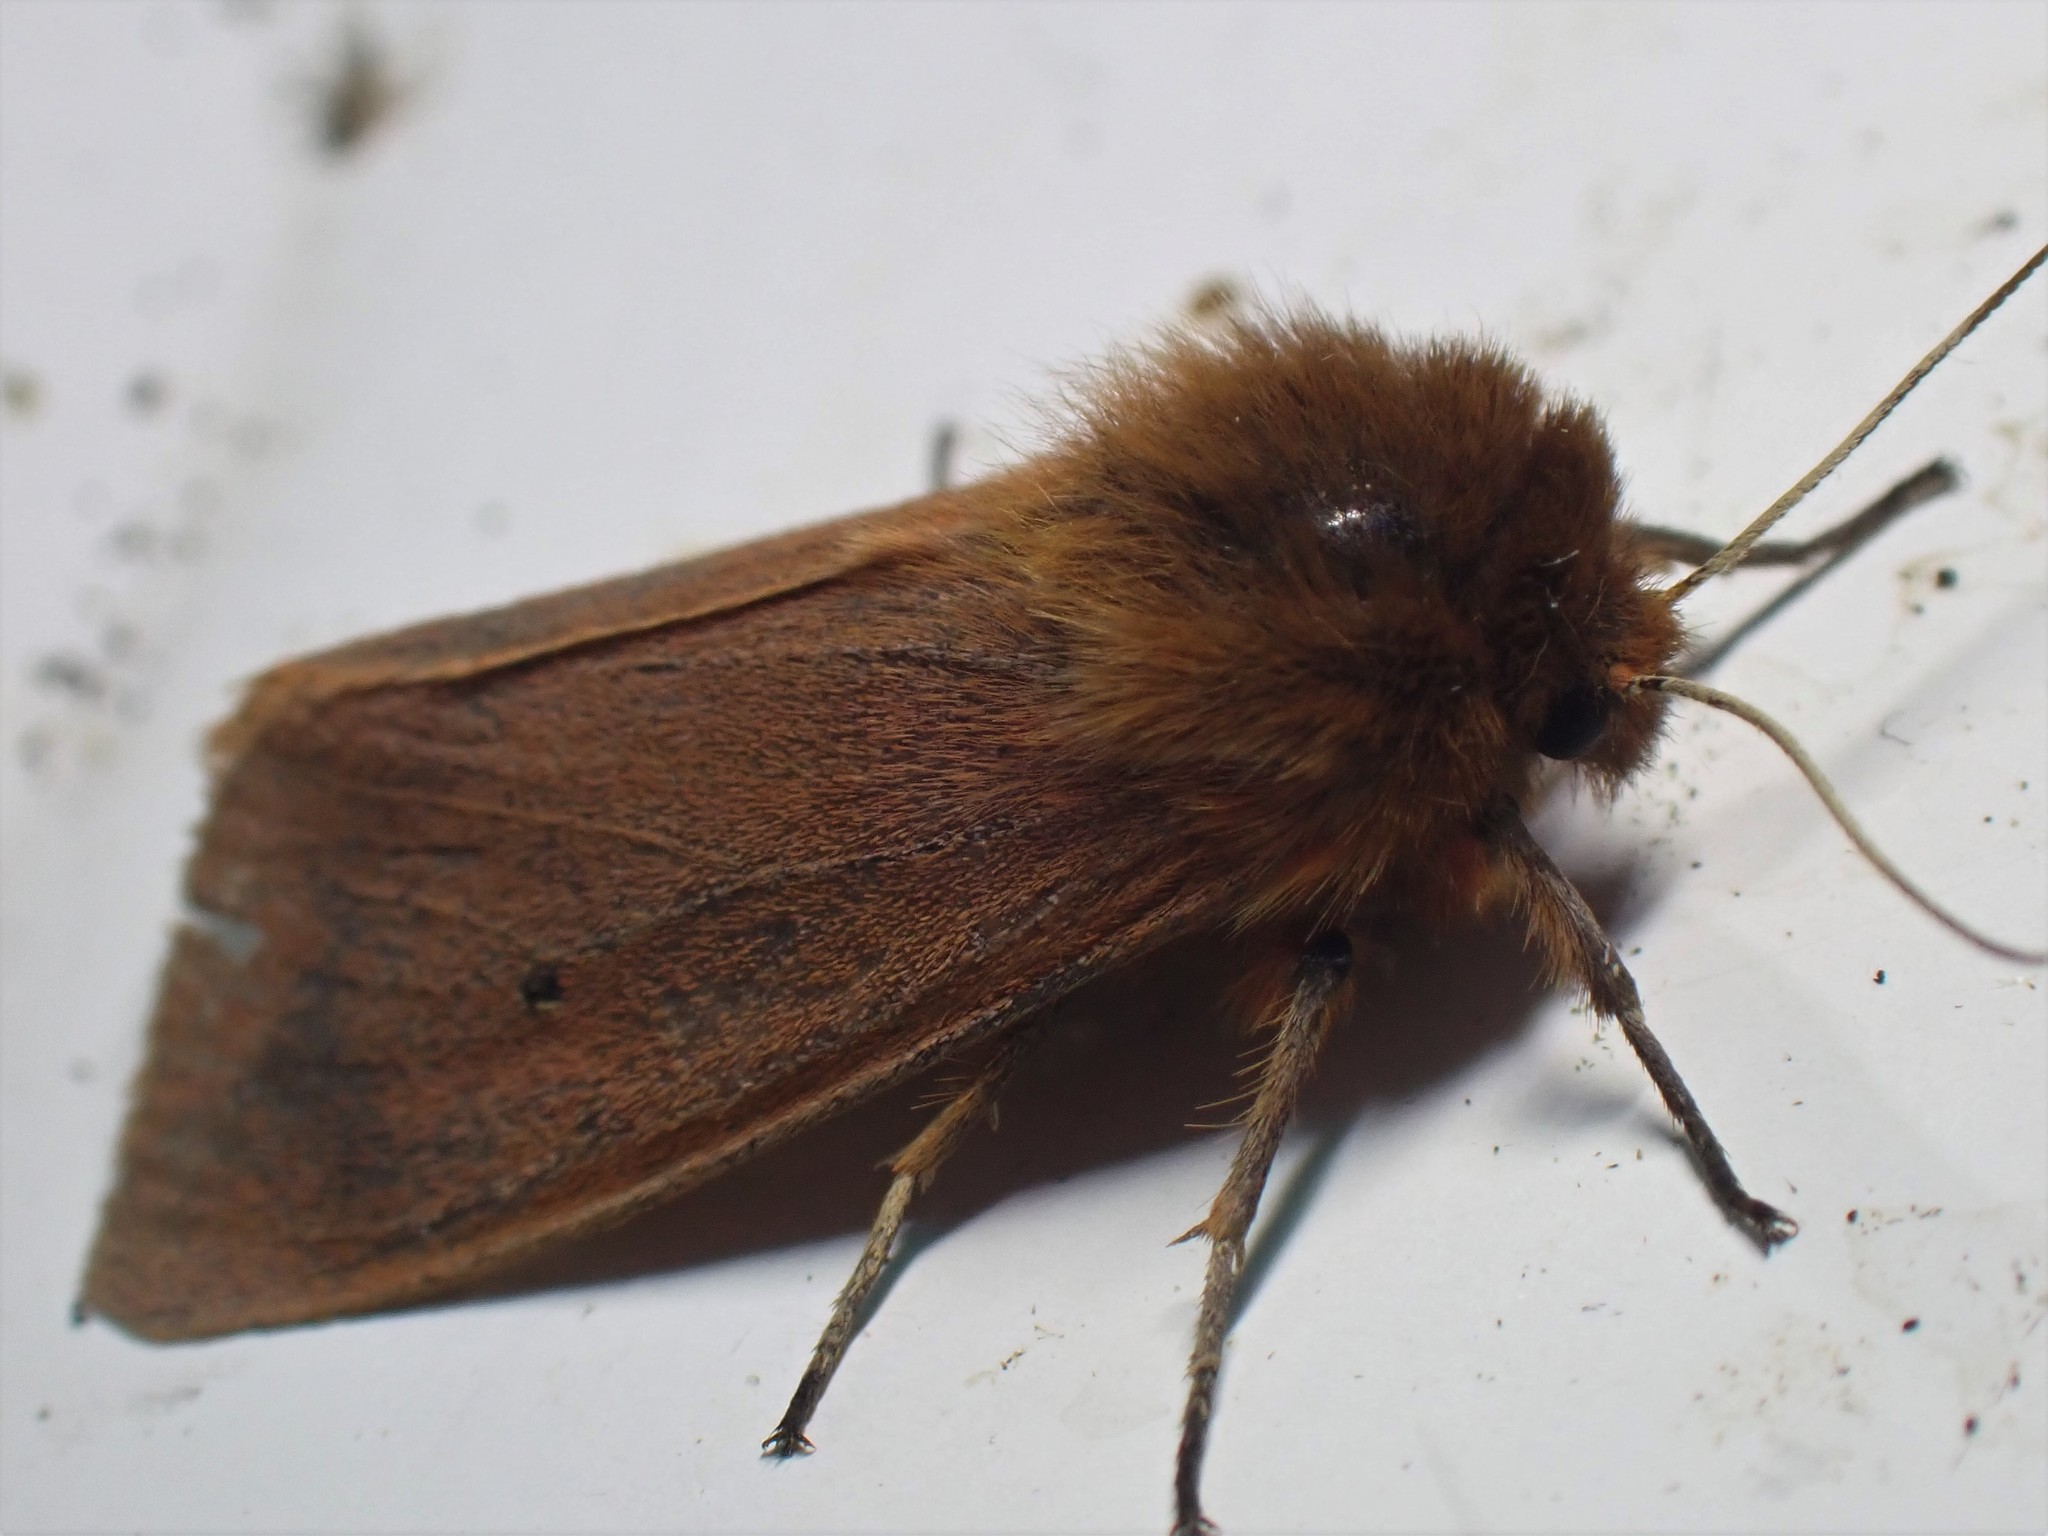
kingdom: Animalia
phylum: Arthropoda
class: Insecta
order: Lepidoptera
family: Erebidae
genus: Phragmatobia
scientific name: Phragmatobia fuliginosa
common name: Ruby tiger
